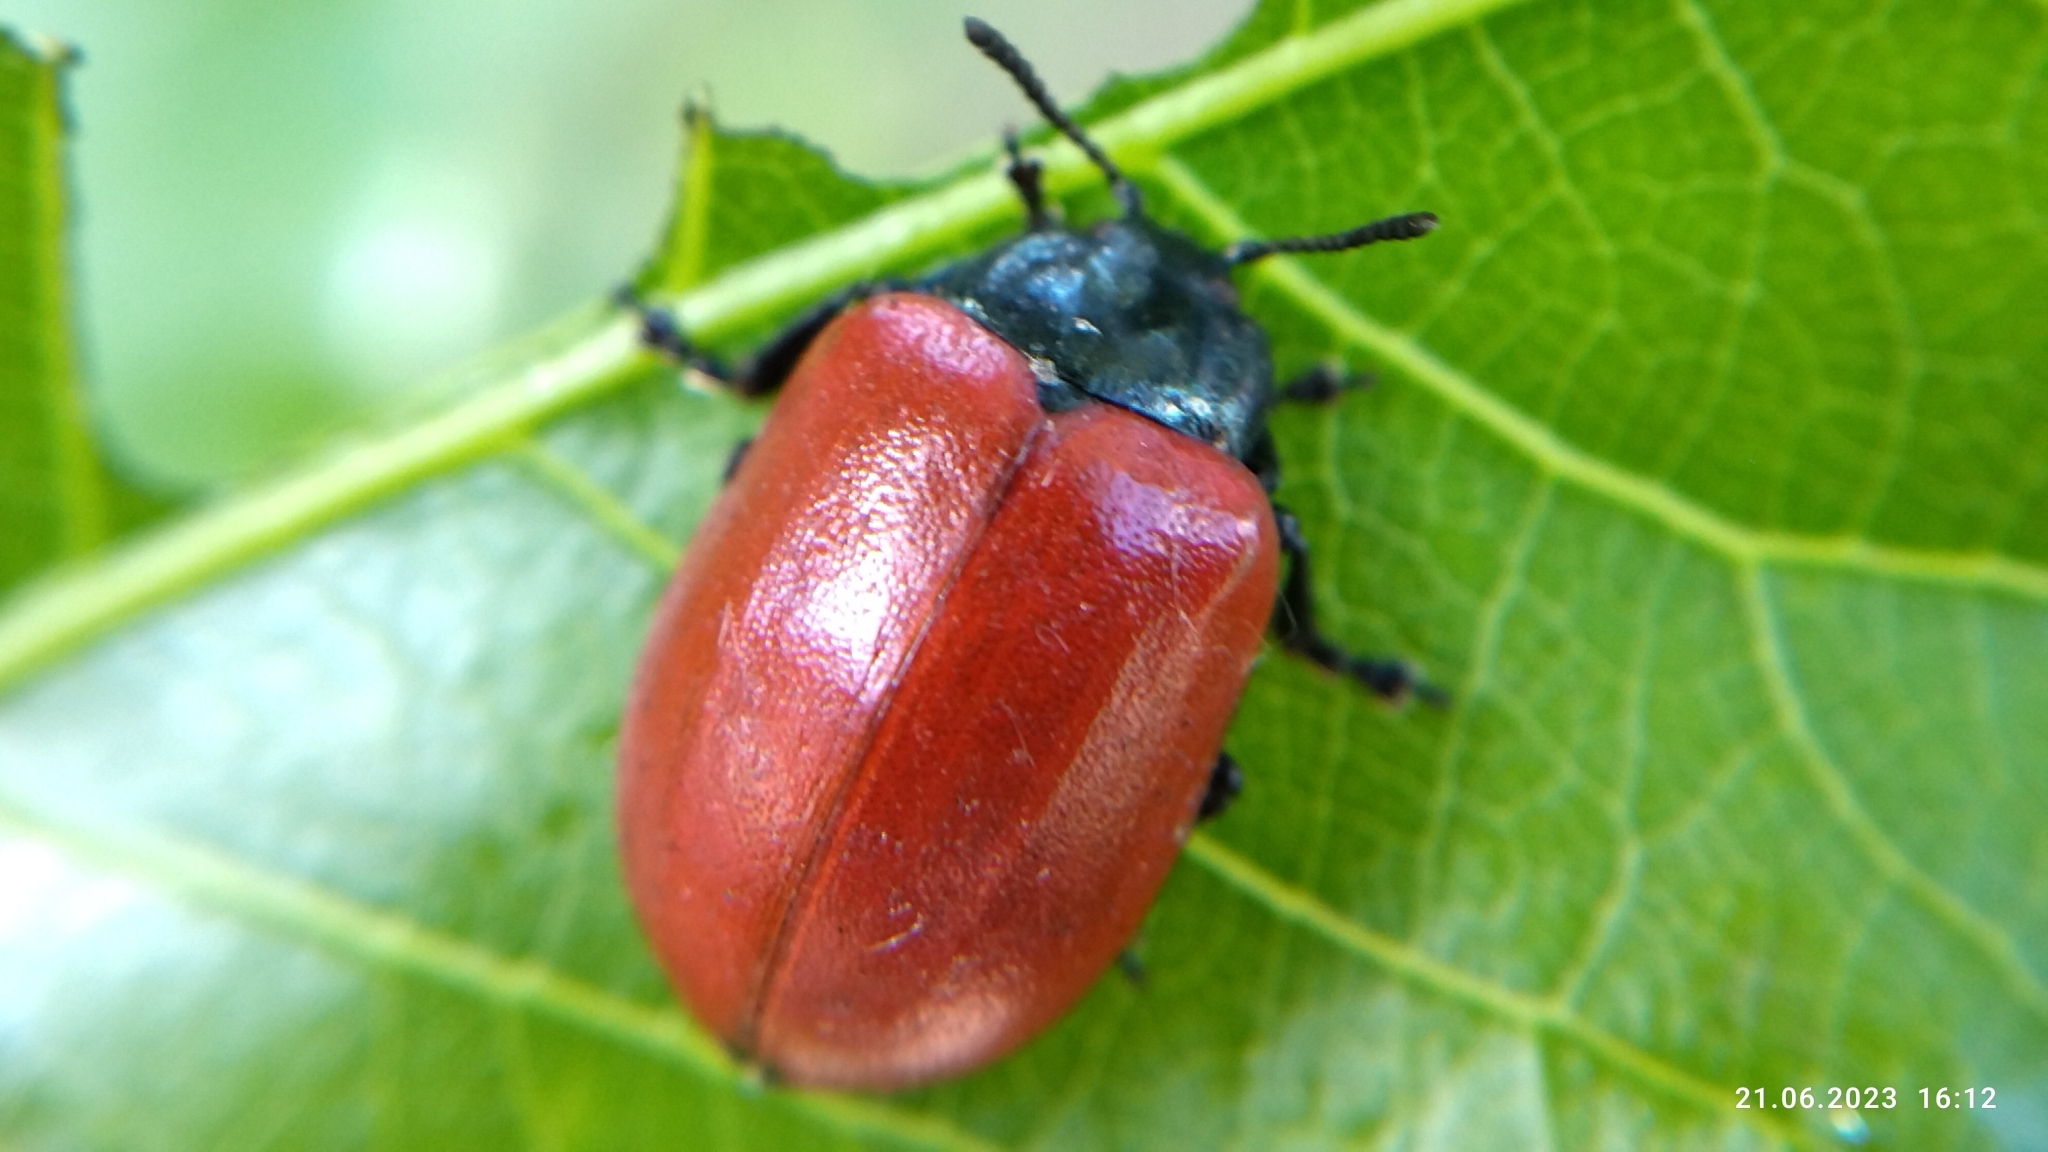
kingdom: Animalia
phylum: Arthropoda
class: Insecta
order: Coleoptera
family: Chrysomelidae
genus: Chrysomela
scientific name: Chrysomela populi
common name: Red poplar leaf beetle
